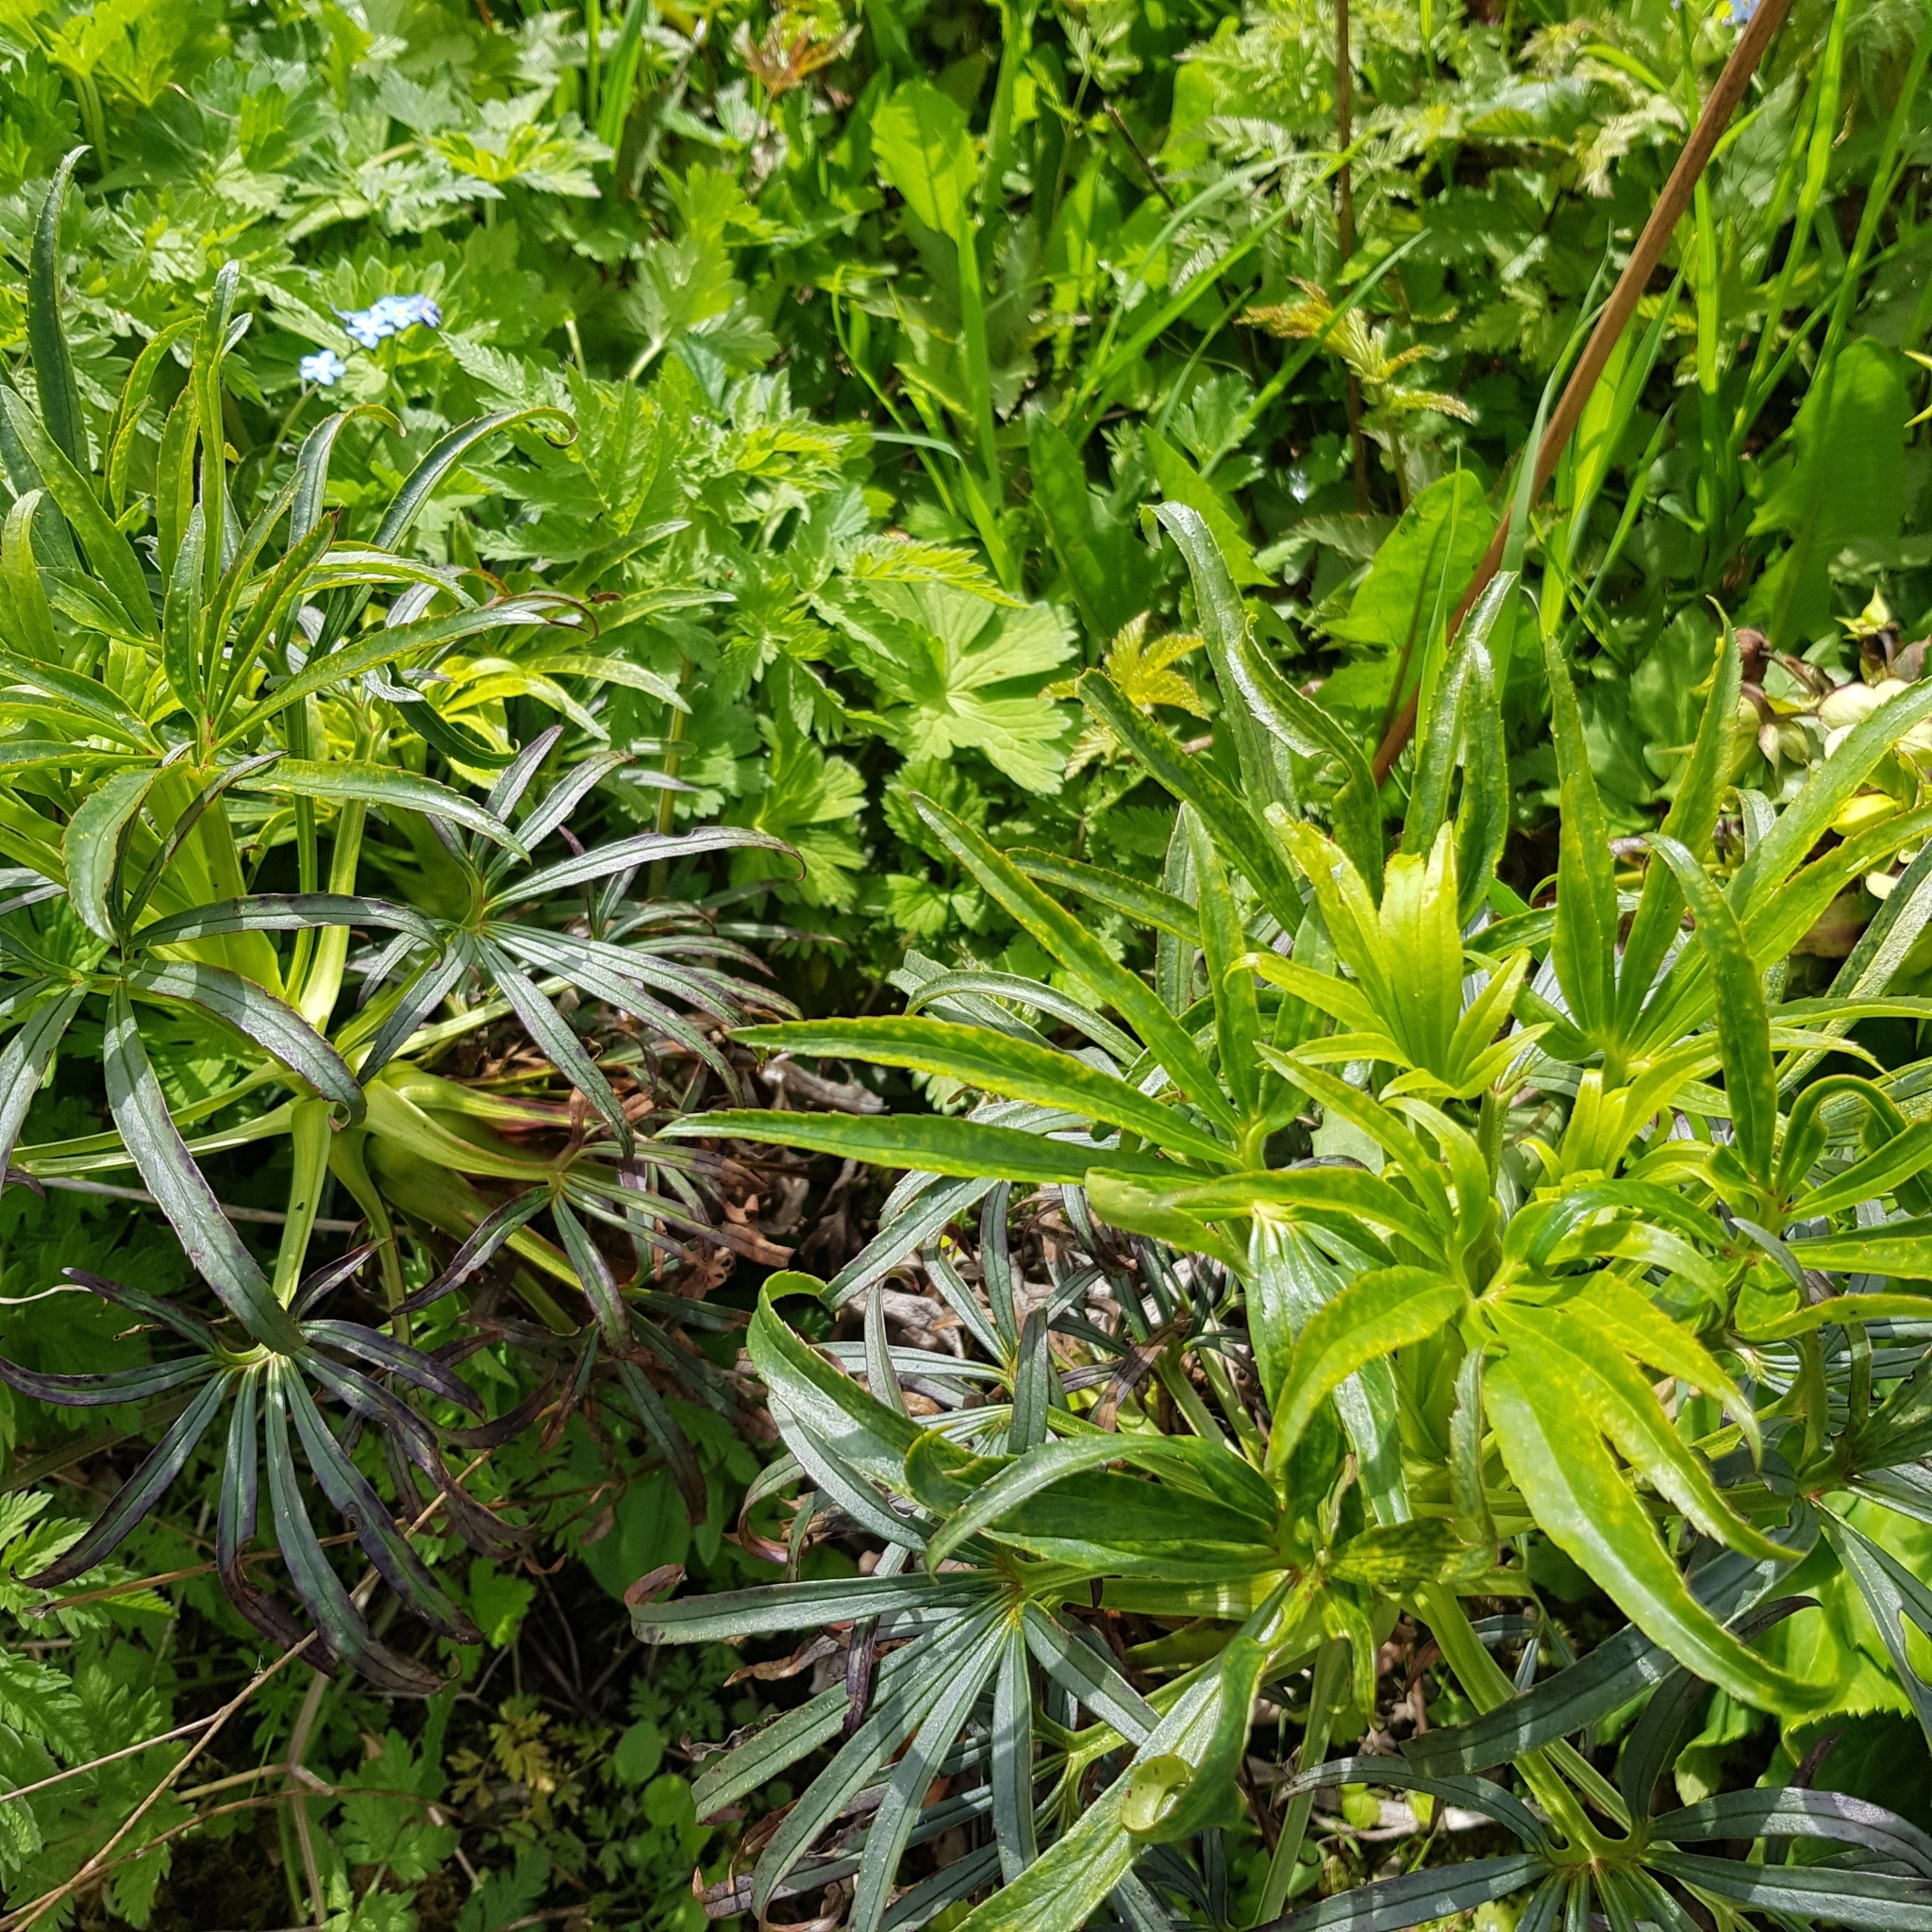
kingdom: Plantae
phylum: Tracheophyta
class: Magnoliopsida
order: Ranunculales
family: Ranunculaceae
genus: Helleborus
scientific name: Helleborus foetidus
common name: Stinking hellebore
